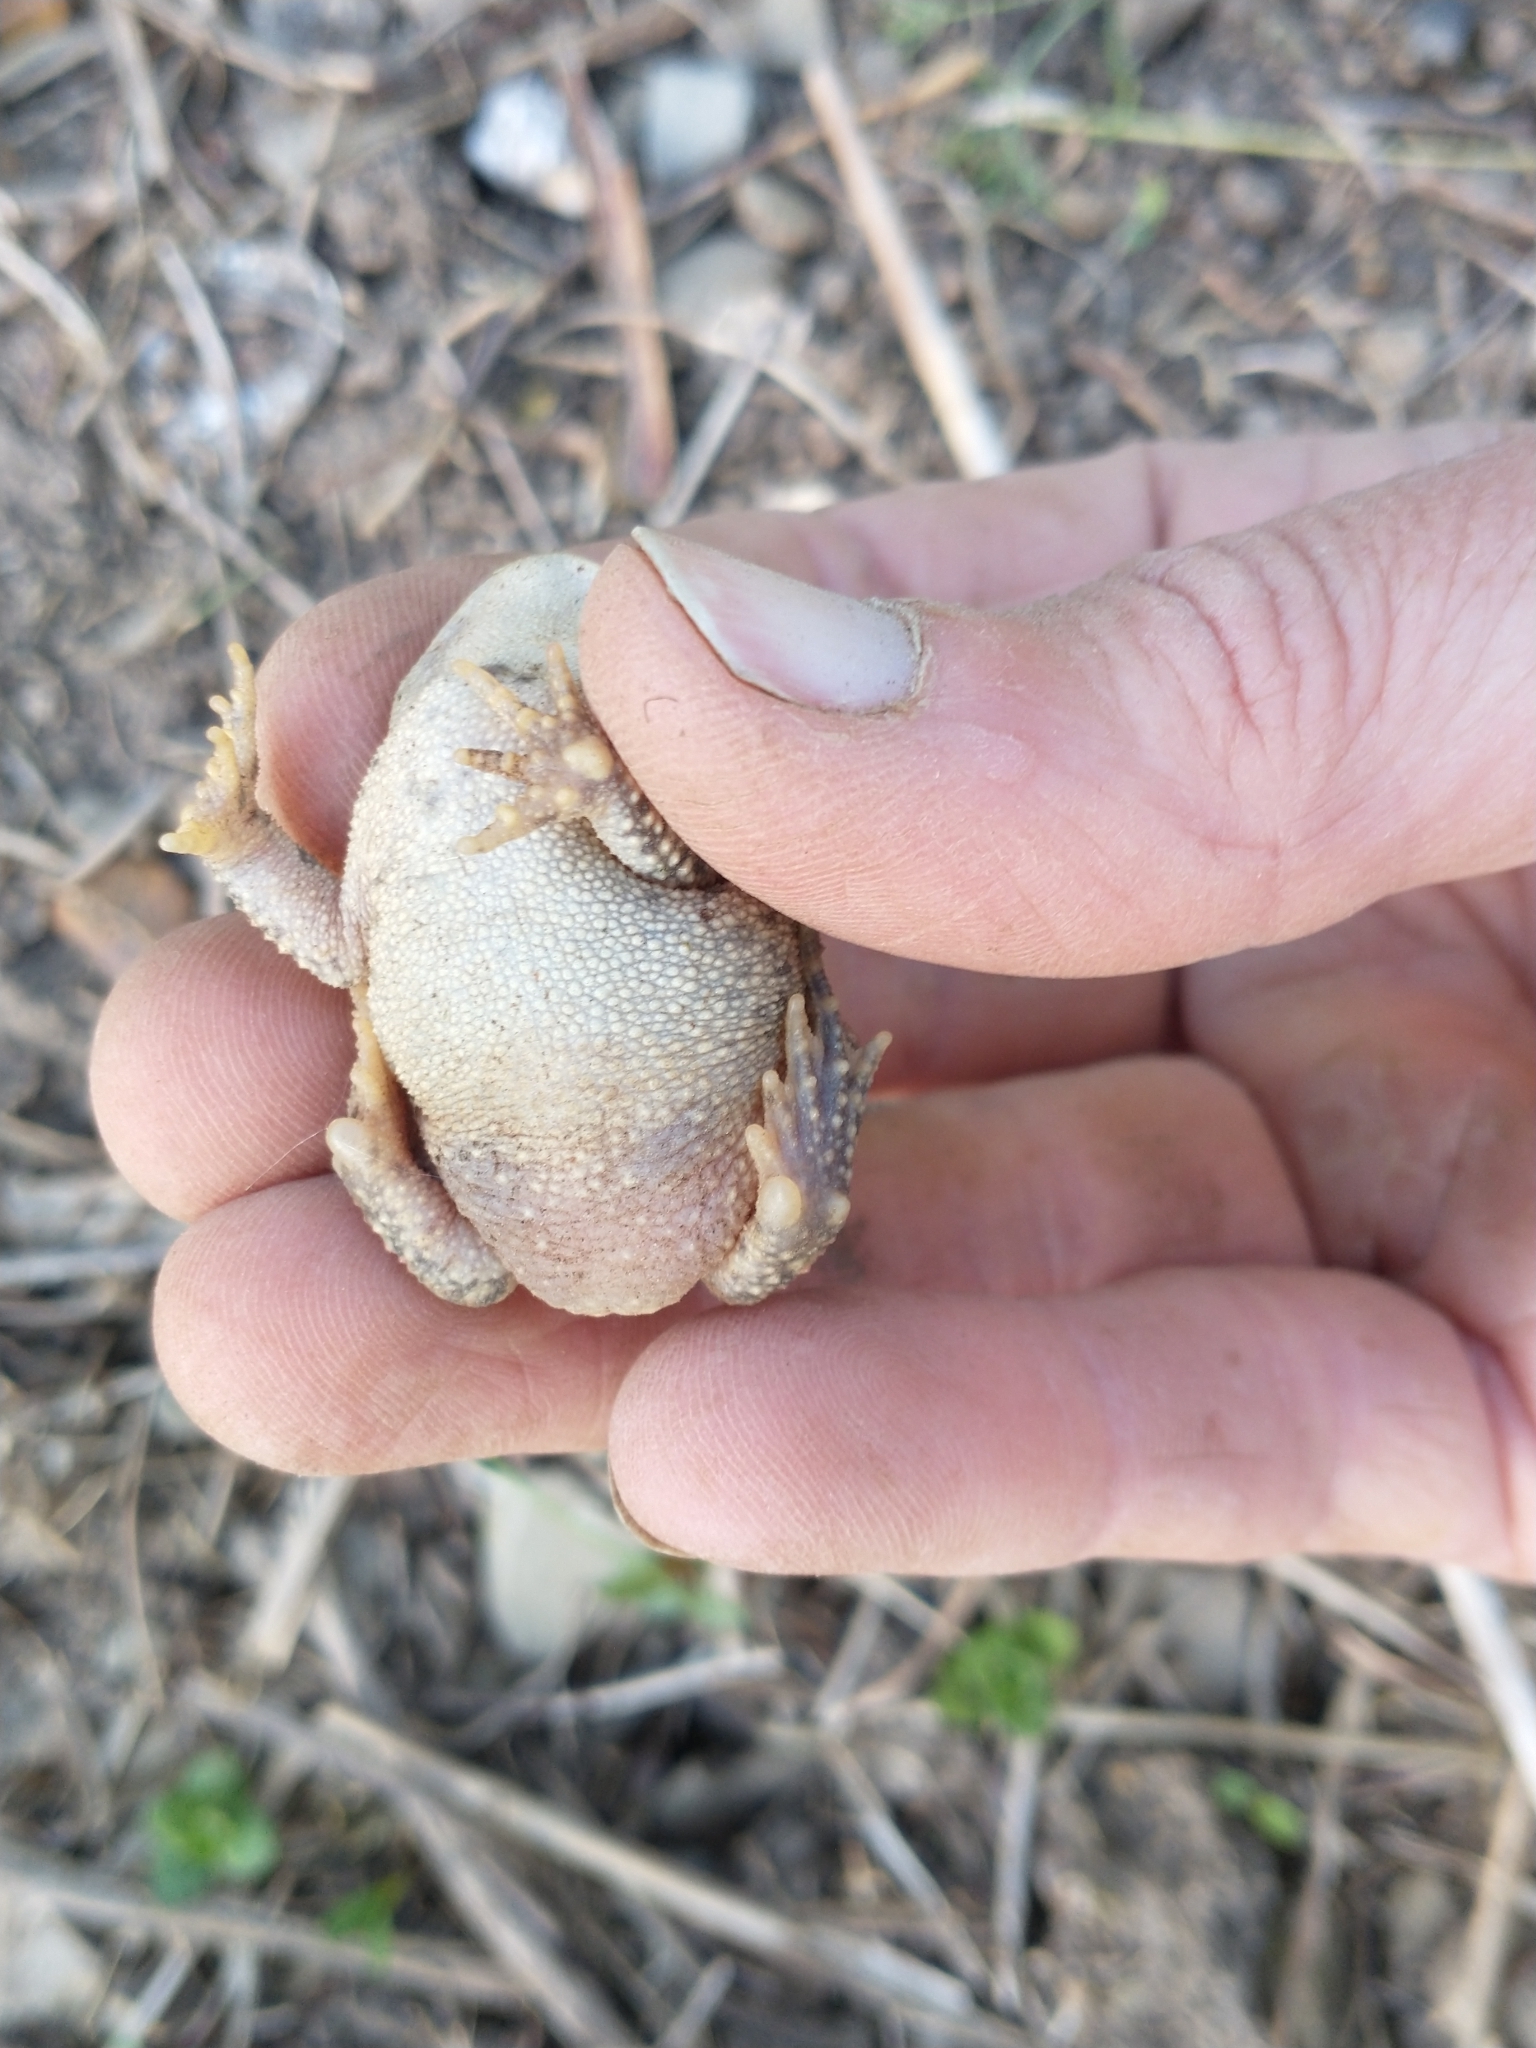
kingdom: Animalia
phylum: Chordata
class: Amphibia
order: Anura
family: Bufonidae
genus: Anaxyrus
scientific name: Anaxyrus americanus
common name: American toad
